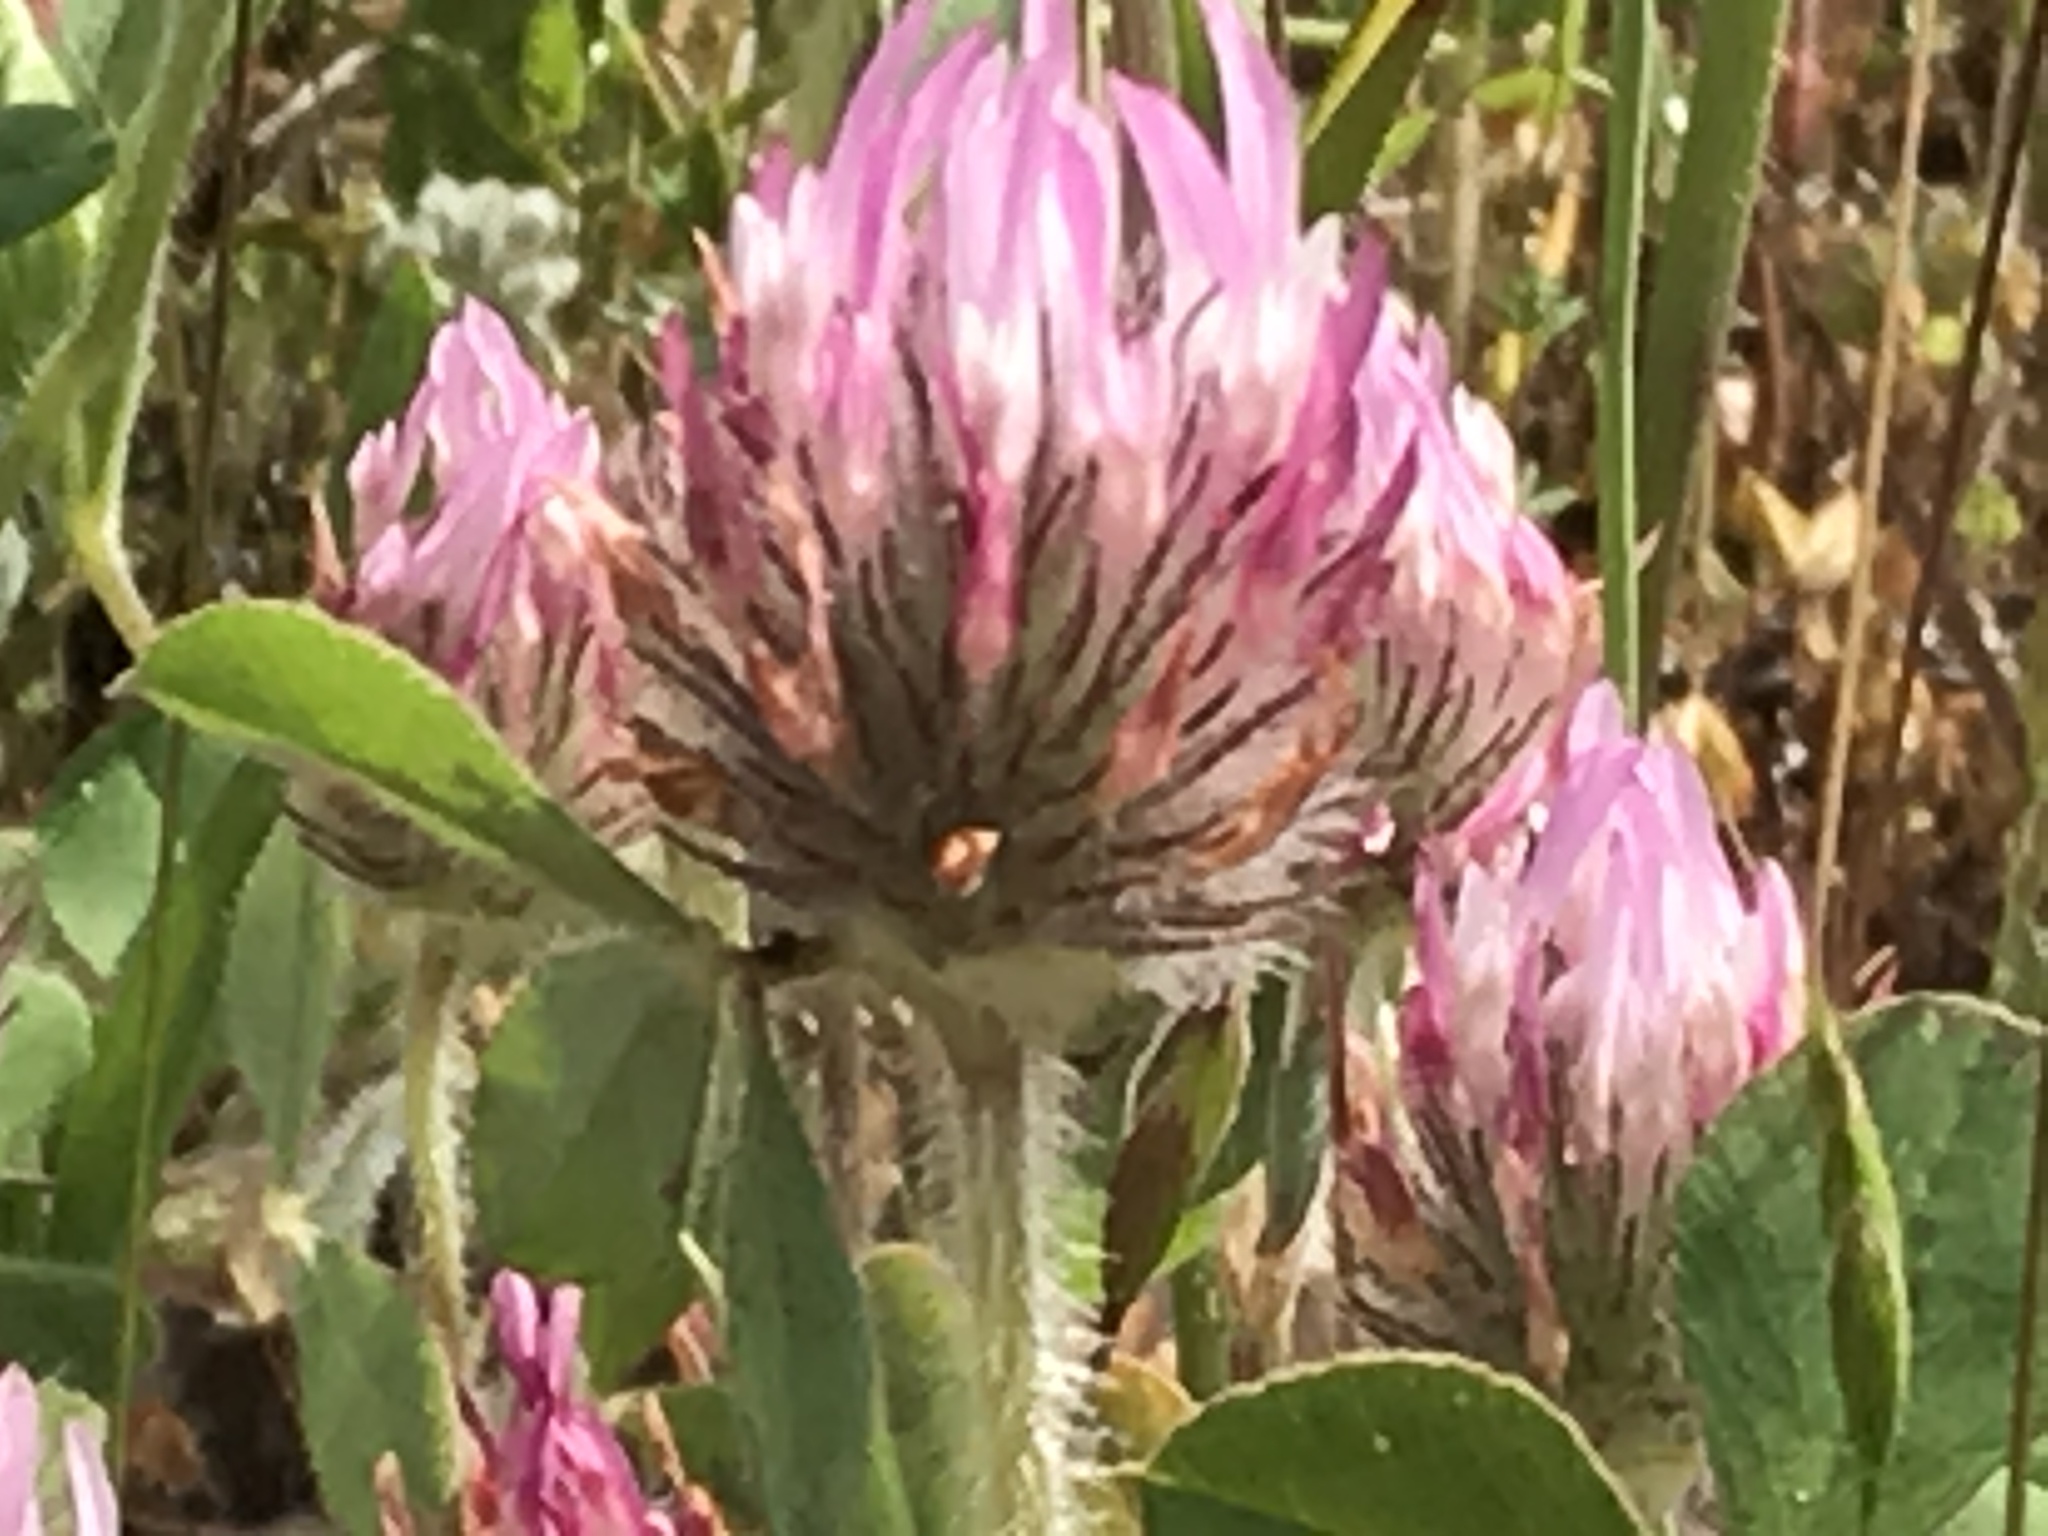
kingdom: Plantae
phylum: Tracheophyta
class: Magnoliopsida
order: Fabales
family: Fabaceae
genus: Trifolium
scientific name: Trifolium hirtum
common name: Rose clover
